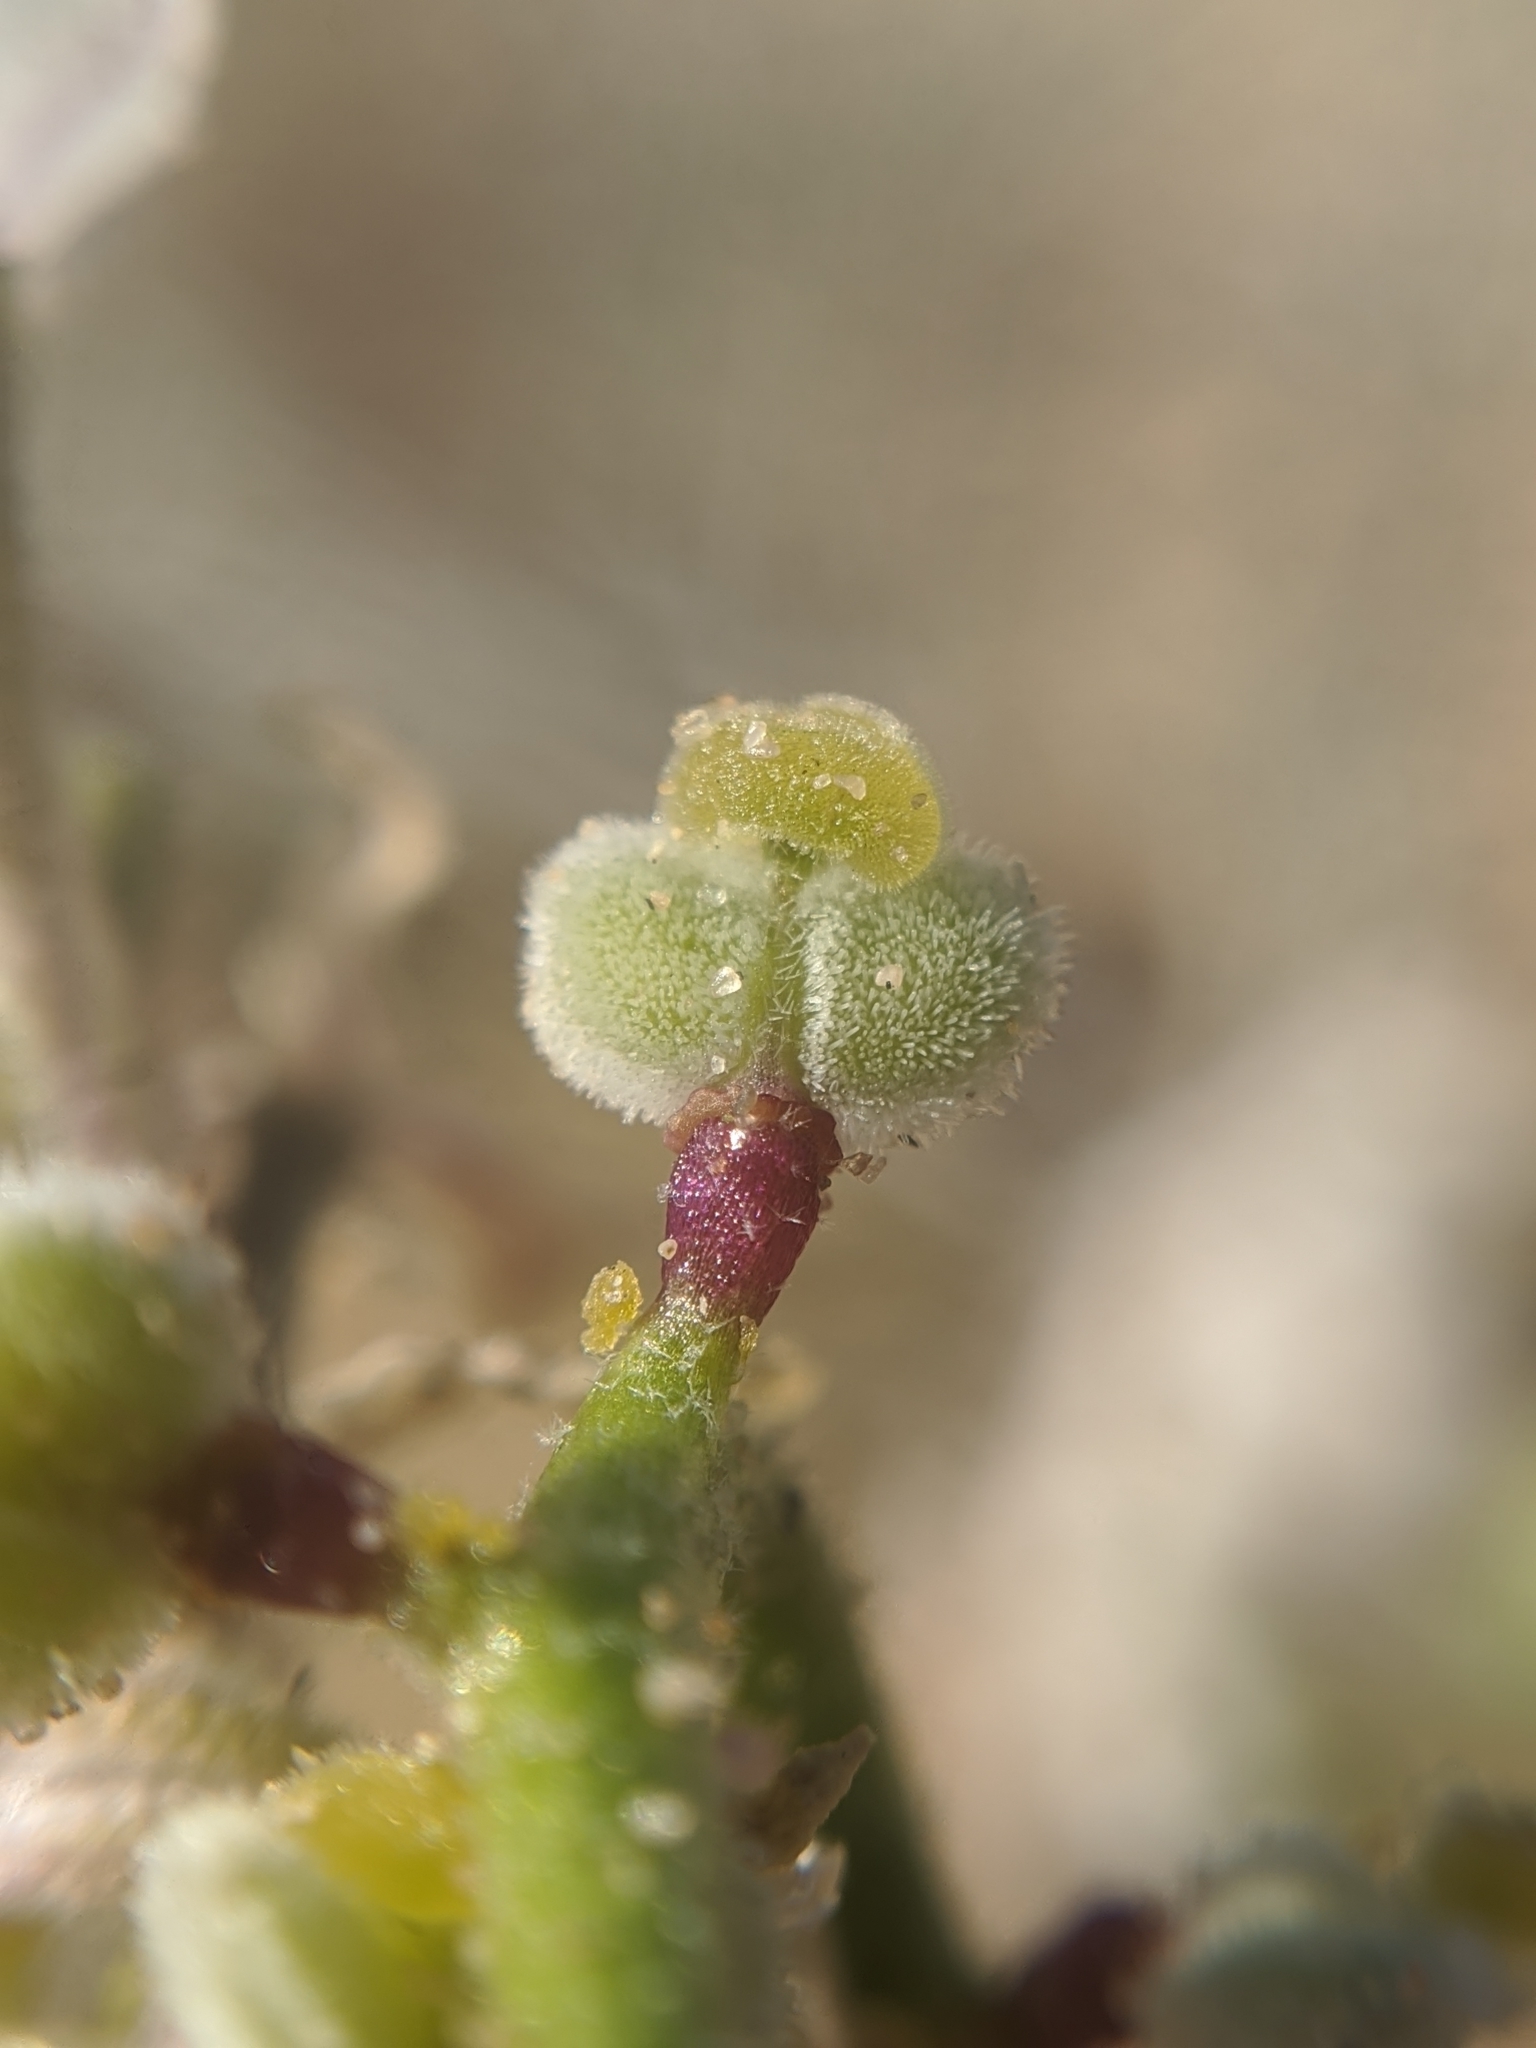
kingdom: Plantae
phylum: Tracheophyta
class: Magnoliopsida
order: Brassicales
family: Brassicaceae
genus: Dithyrea
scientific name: Dithyrea californica
